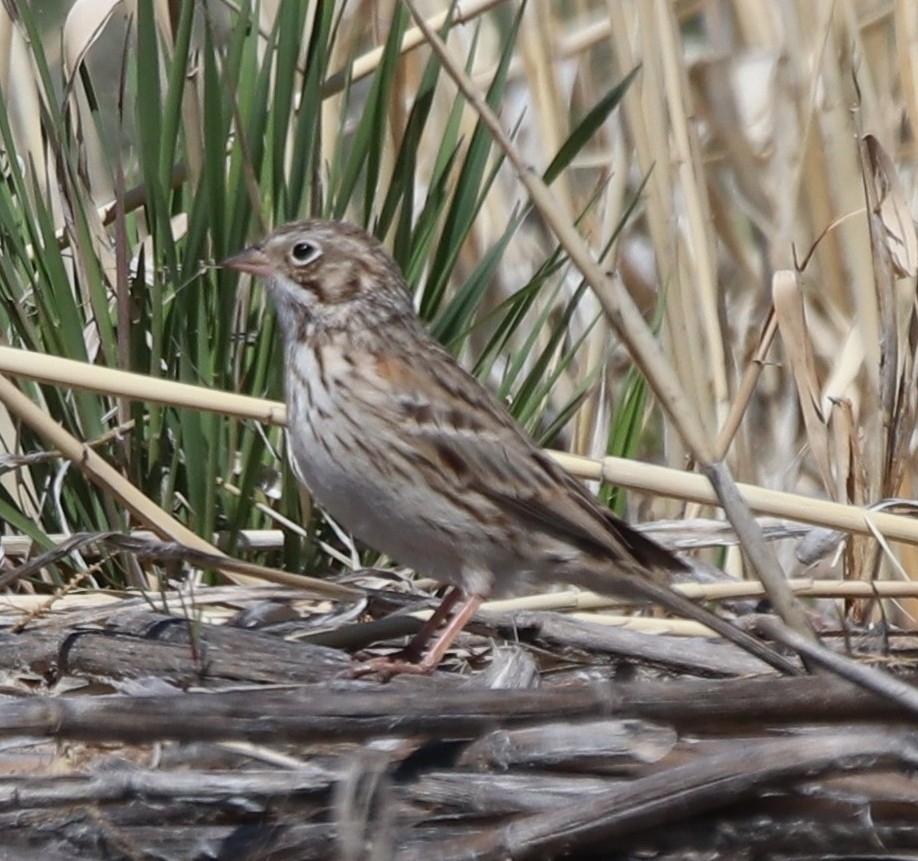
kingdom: Animalia
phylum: Chordata
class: Aves
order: Passeriformes
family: Passerellidae
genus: Pooecetes
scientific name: Pooecetes gramineus
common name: Vesper sparrow
